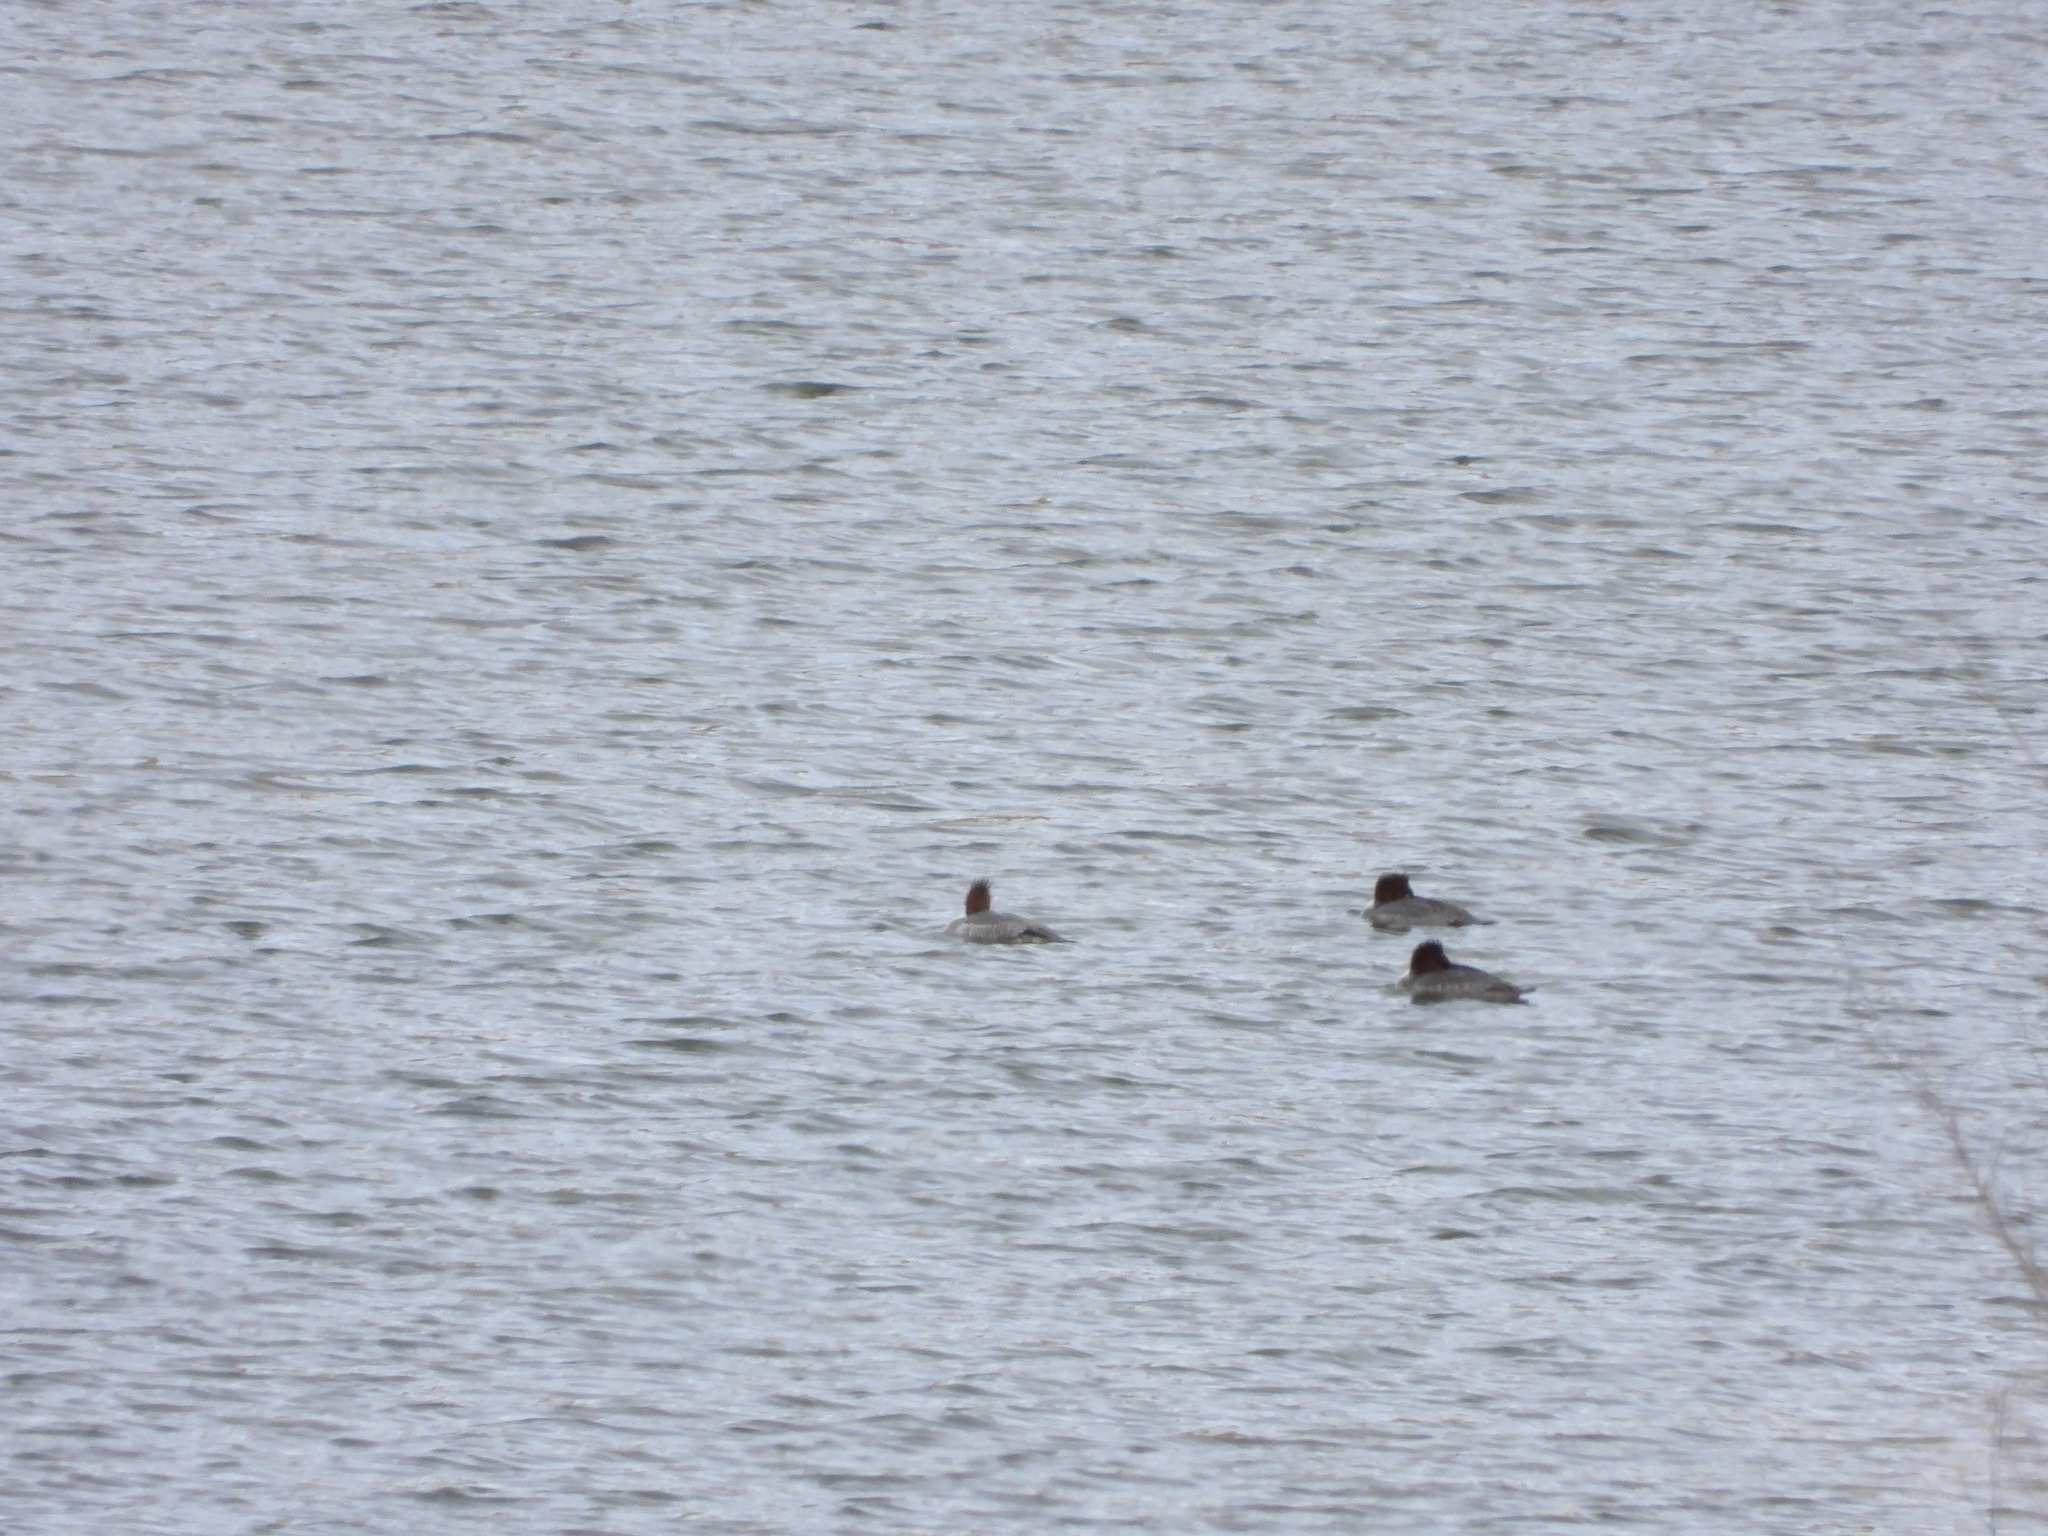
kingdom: Animalia
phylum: Chordata
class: Aves
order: Anseriformes
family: Anatidae
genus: Aythya
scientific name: Aythya americana
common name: Redhead
